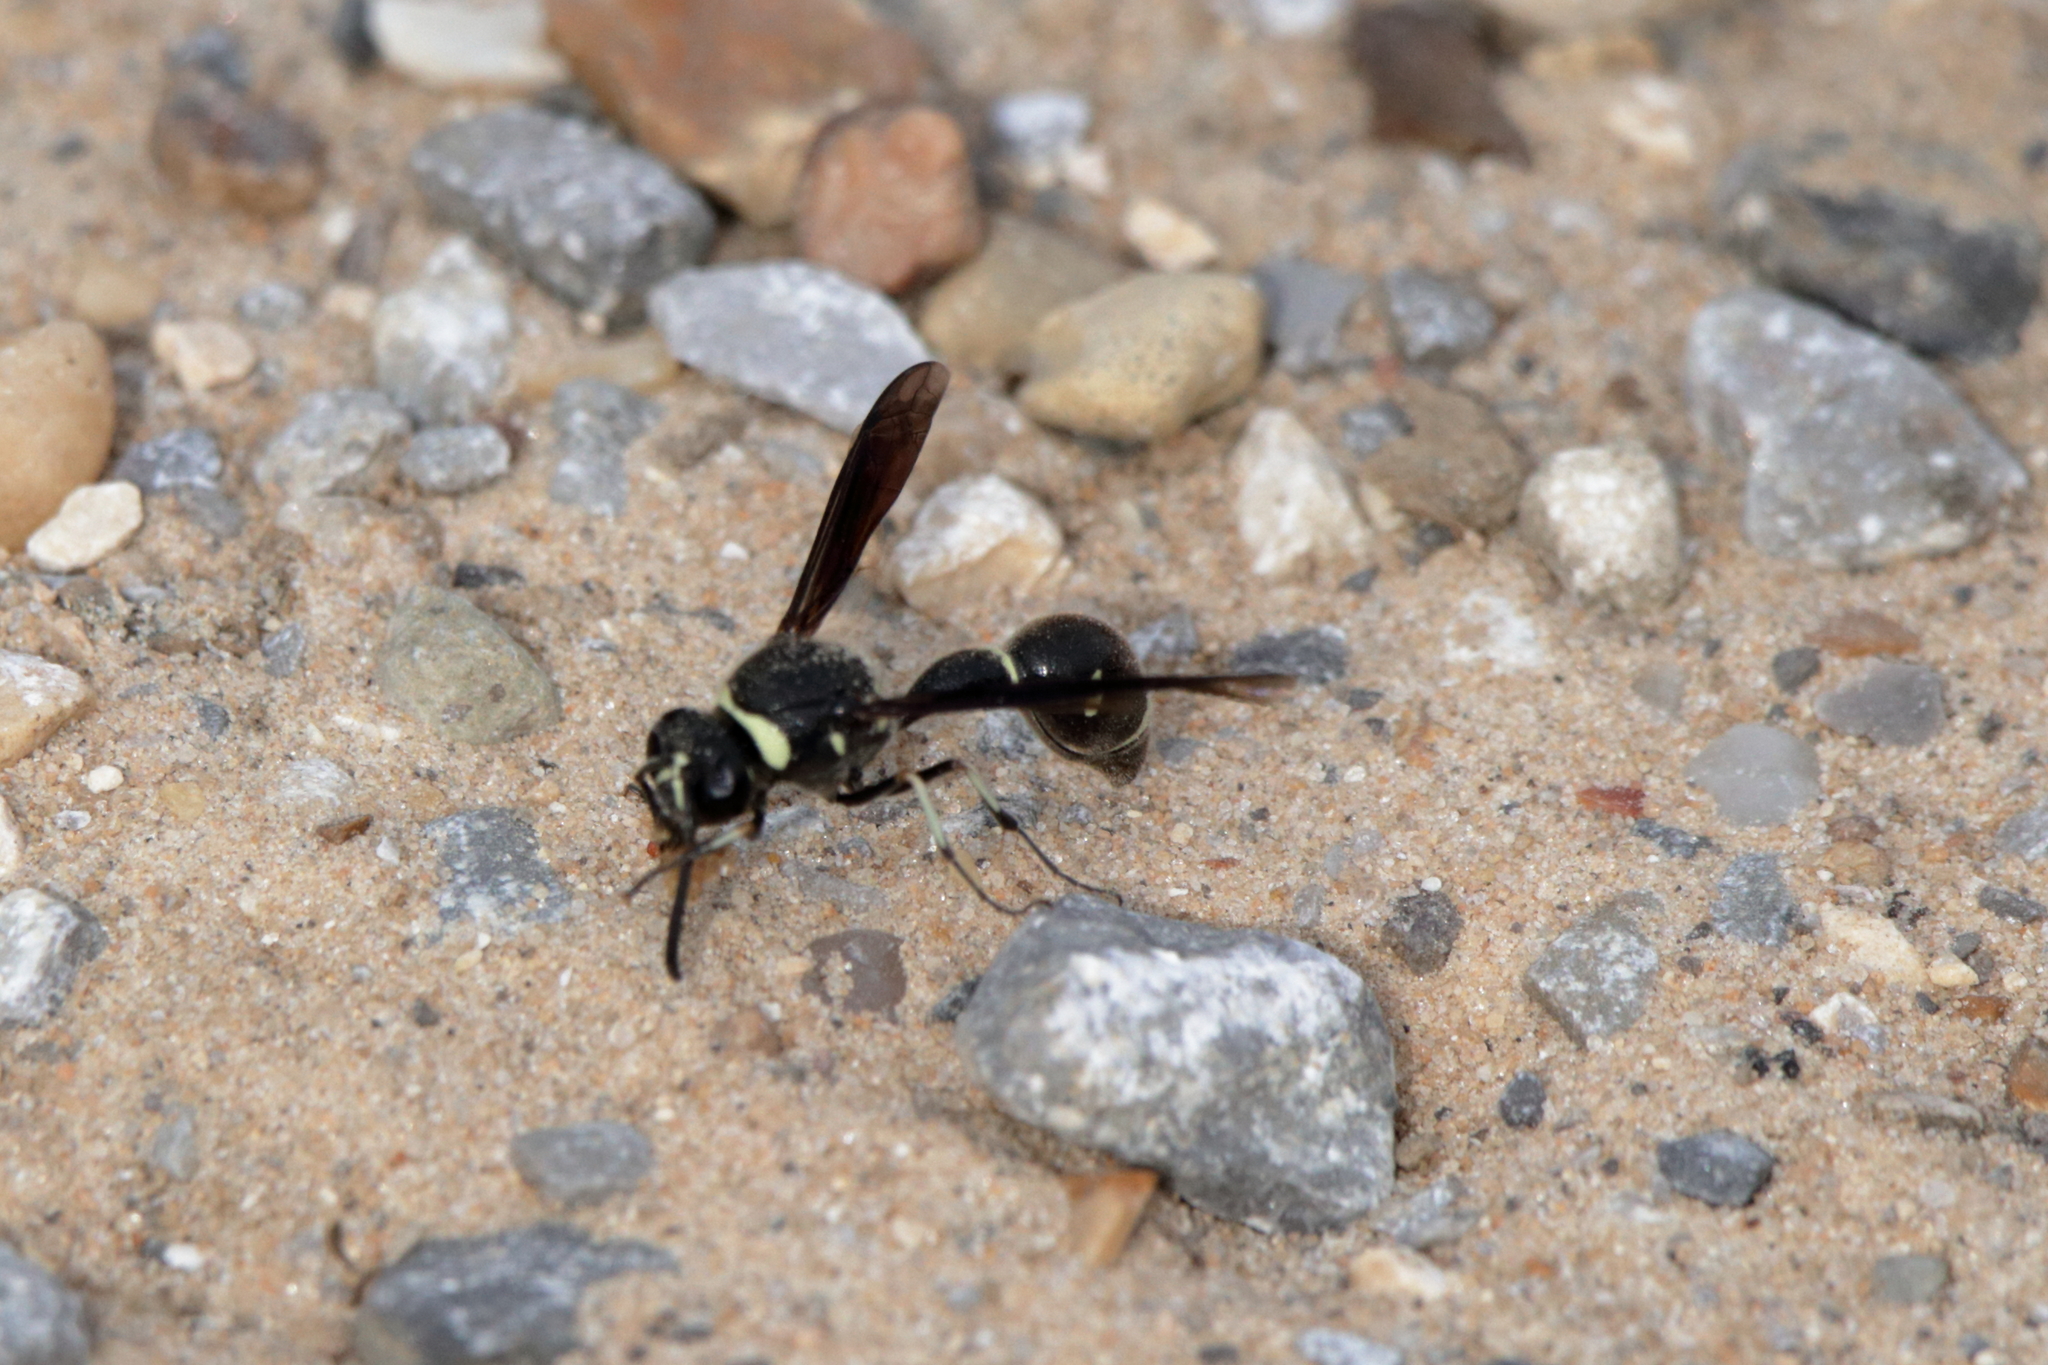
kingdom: Animalia
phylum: Arthropoda
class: Insecta
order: Hymenoptera
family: Vespidae
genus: Eumenes
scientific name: Eumenes fraternus
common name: Fraternal potter wasp
